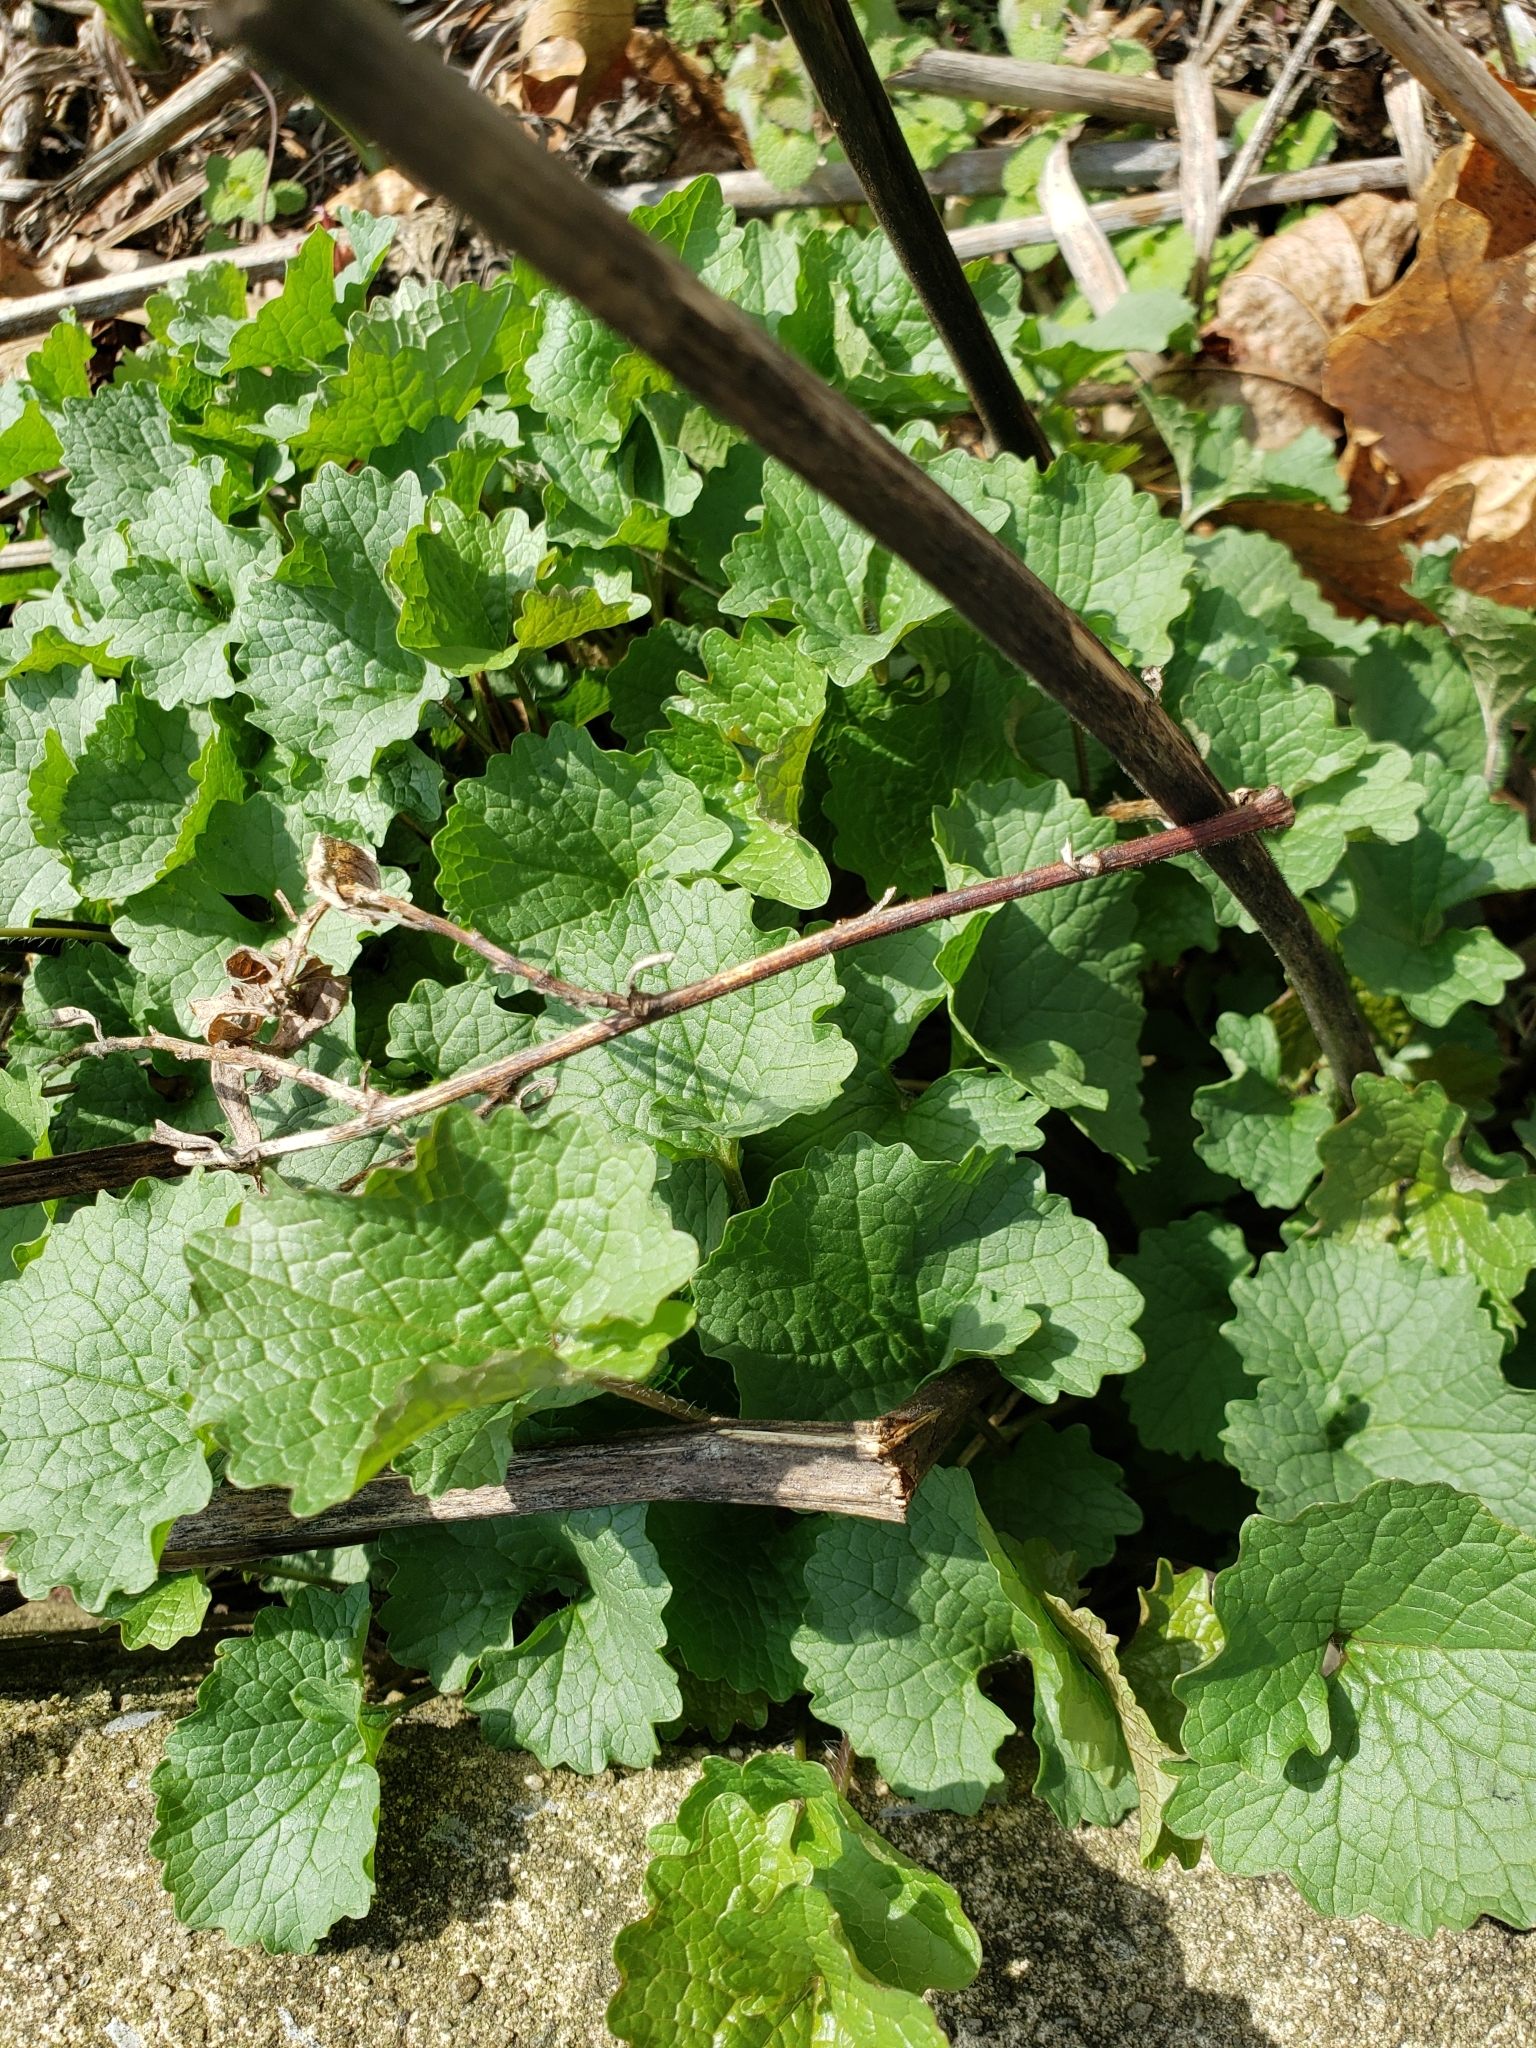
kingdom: Plantae
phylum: Tracheophyta
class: Magnoliopsida
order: Brassicales
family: Brassicaceae
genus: Alliaria
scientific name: Alliaria petiolata
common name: Garlic mustard
